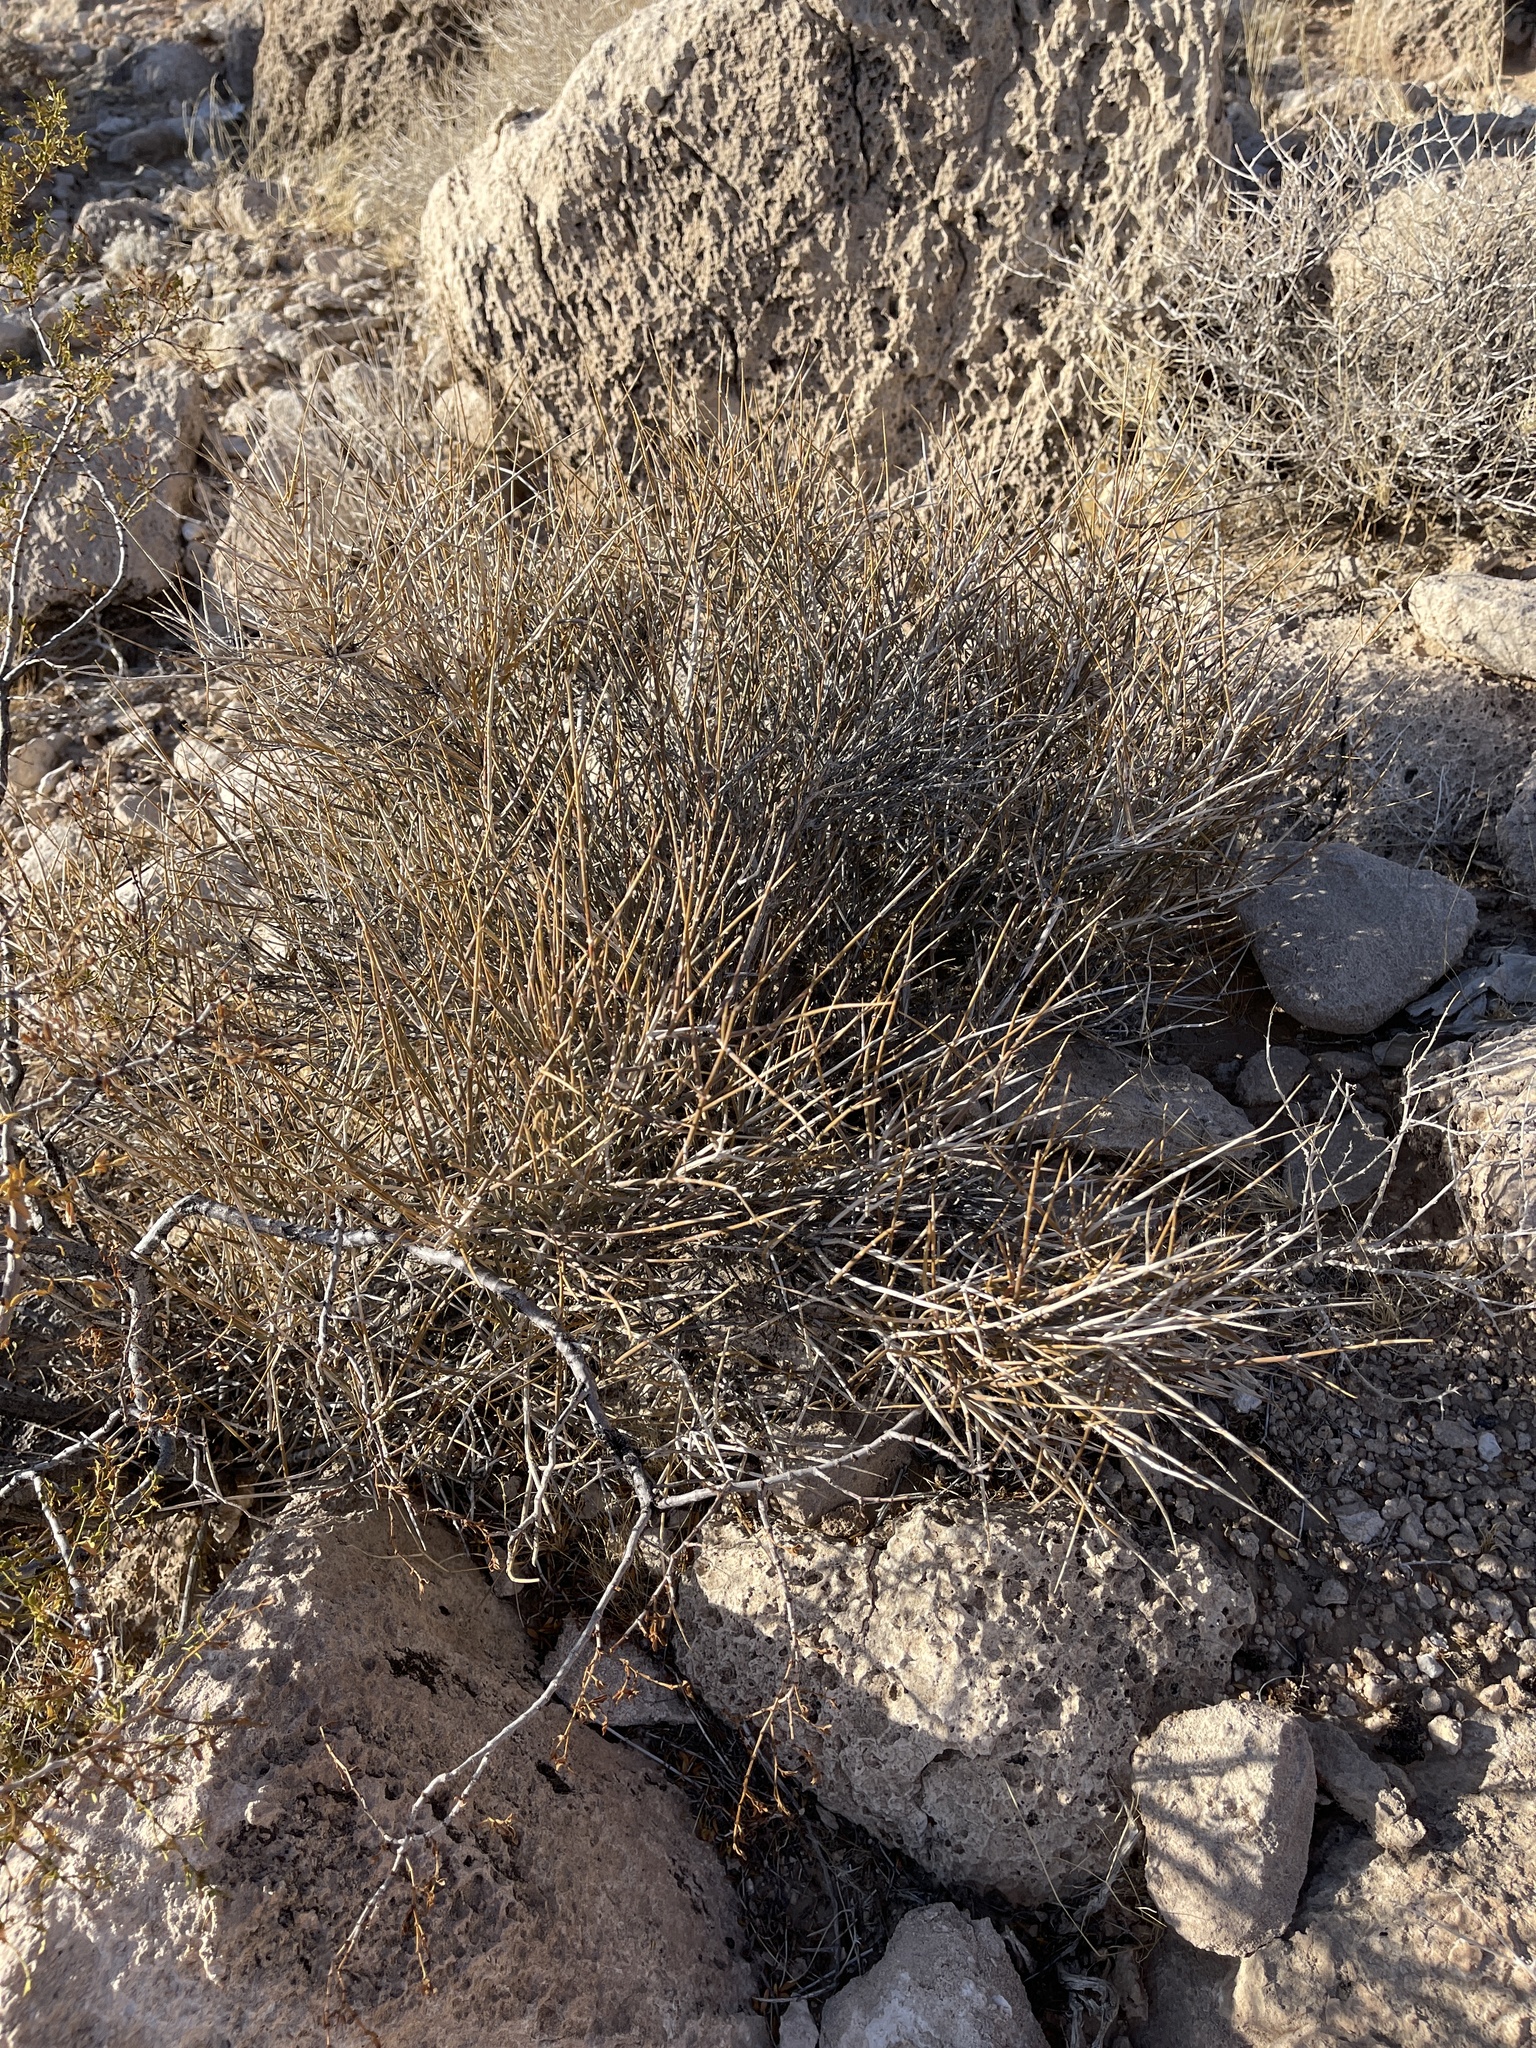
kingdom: Plantae
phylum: Tracheophyta
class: Gnetopsida
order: Ephedrales
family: Ephedraceae
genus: Ephedra
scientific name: Ephedra nevadensis
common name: Gray ephedra
